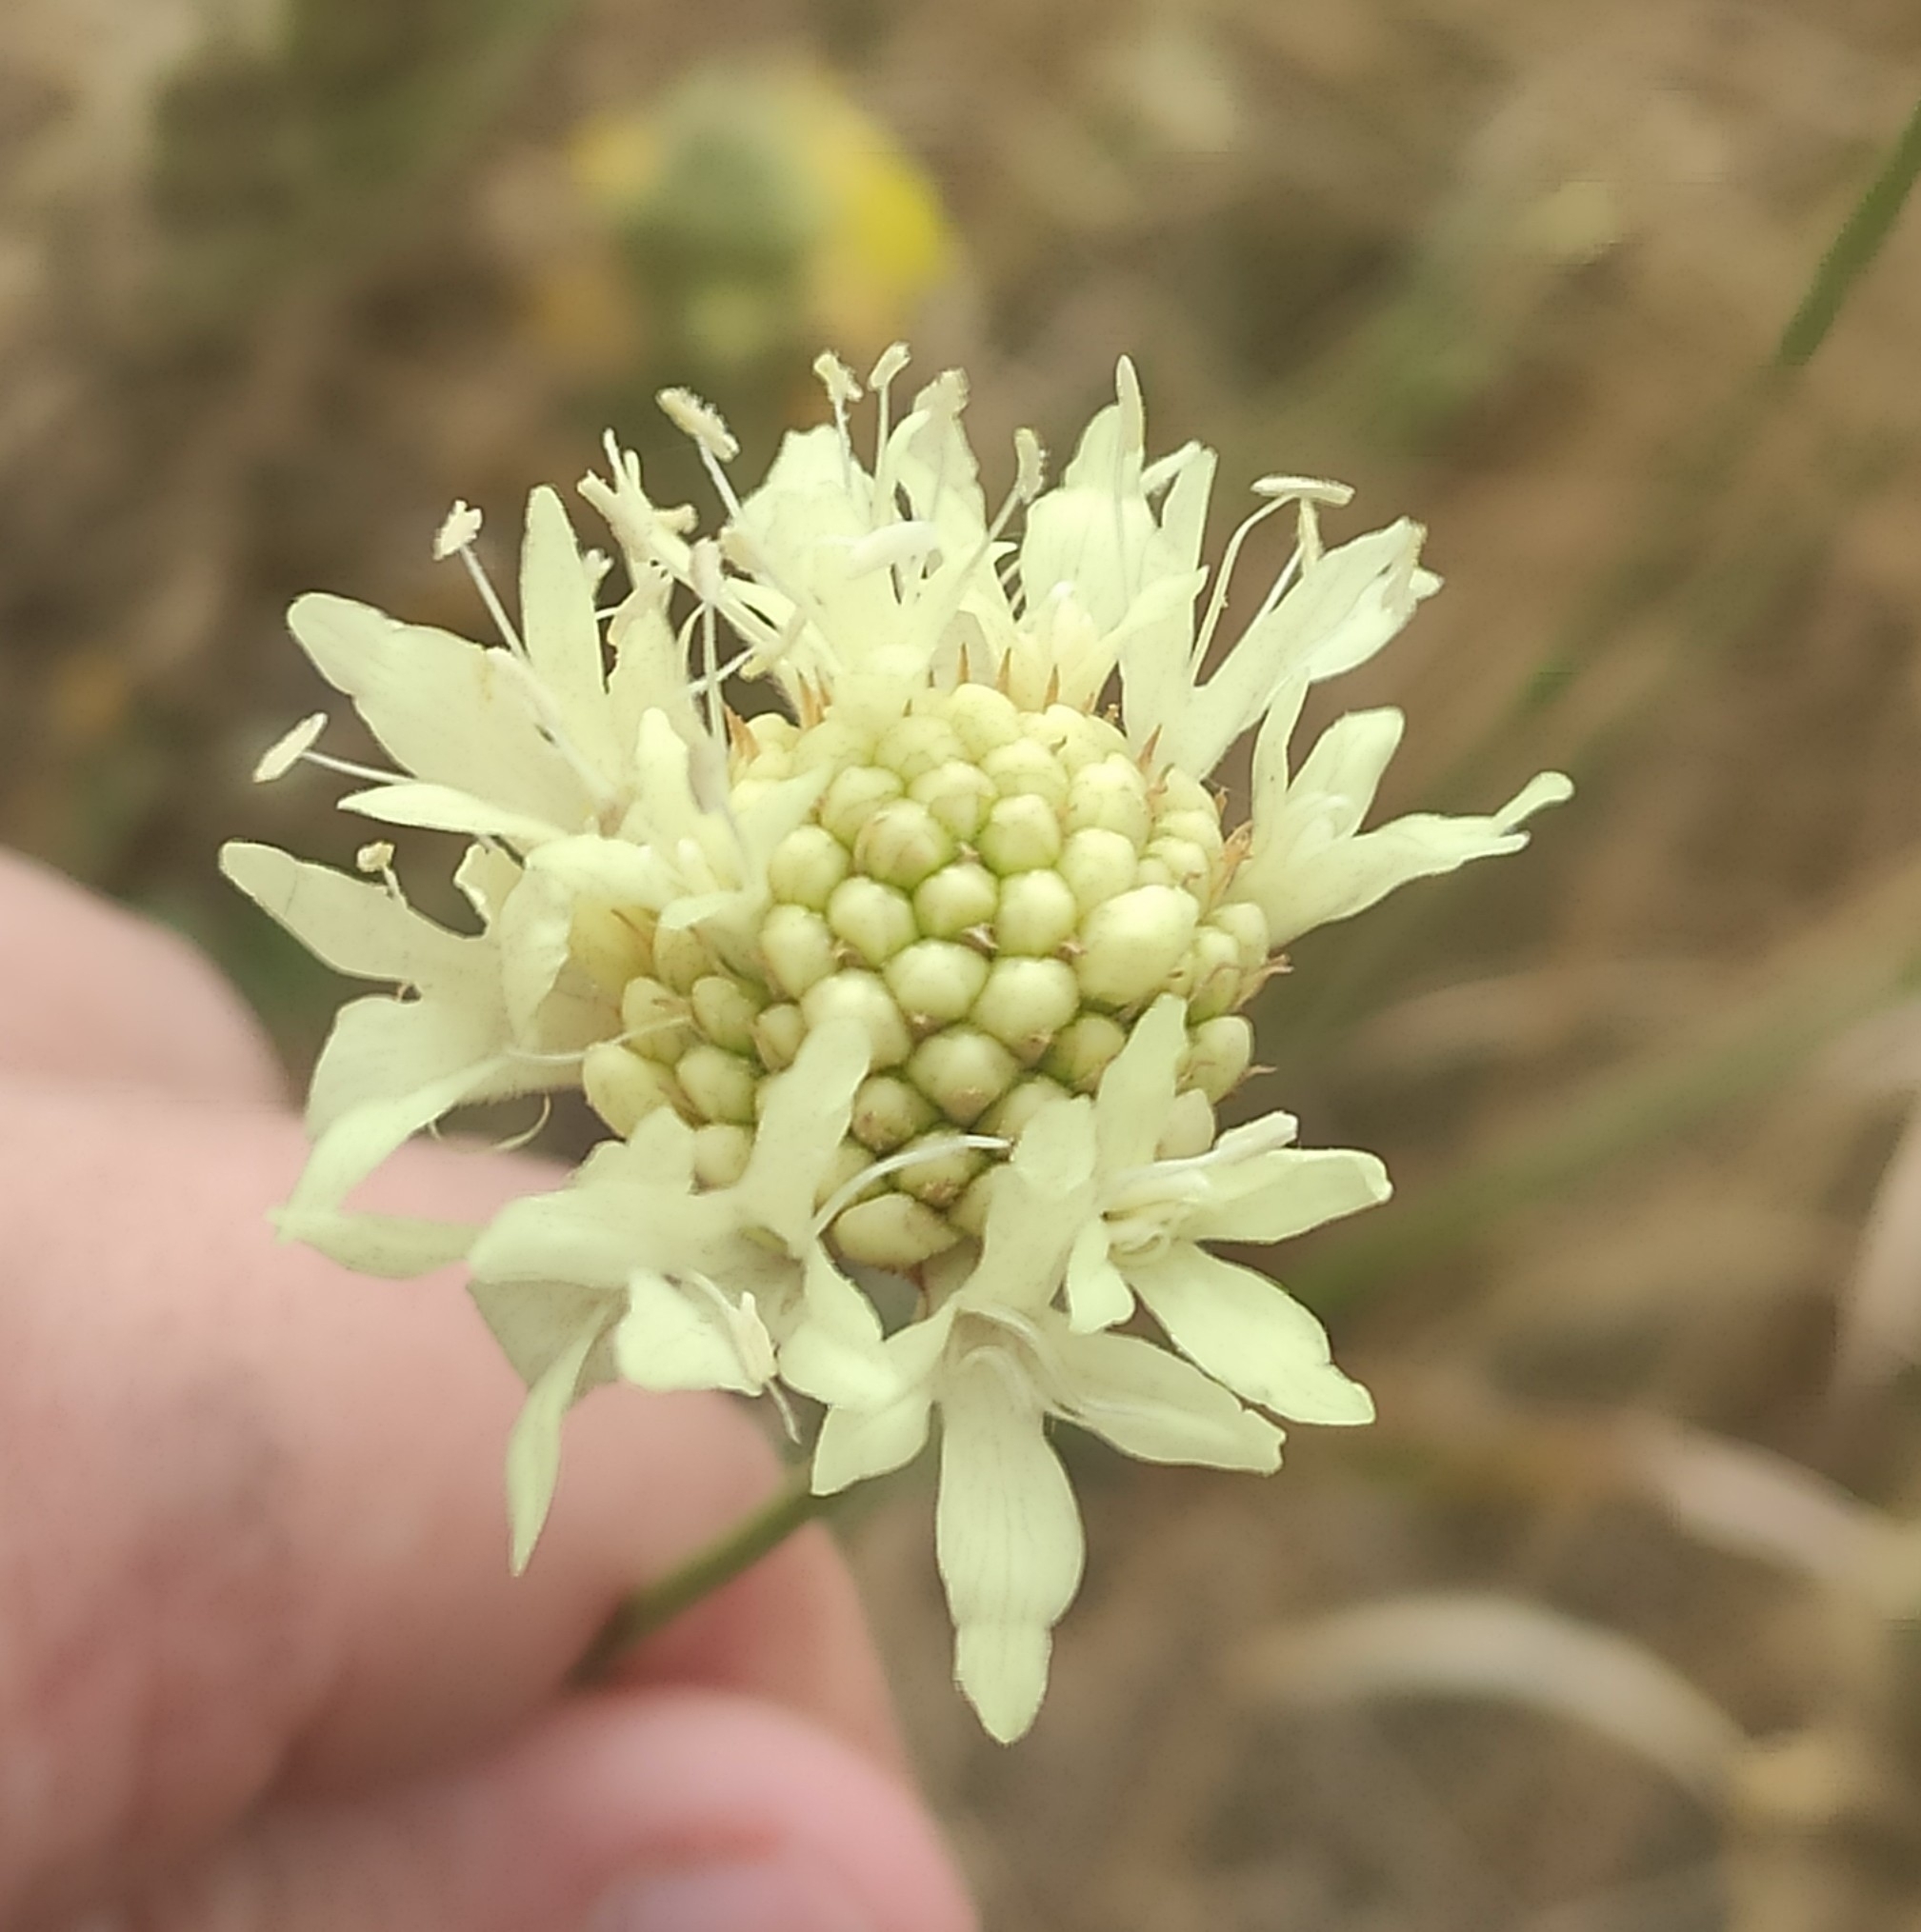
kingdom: Plantae
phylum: Tracheophyta
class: Magnoliopsida
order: Dipsacales
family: Caprifoliaceae
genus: Cephalaria
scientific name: Cephalaria uralensis
